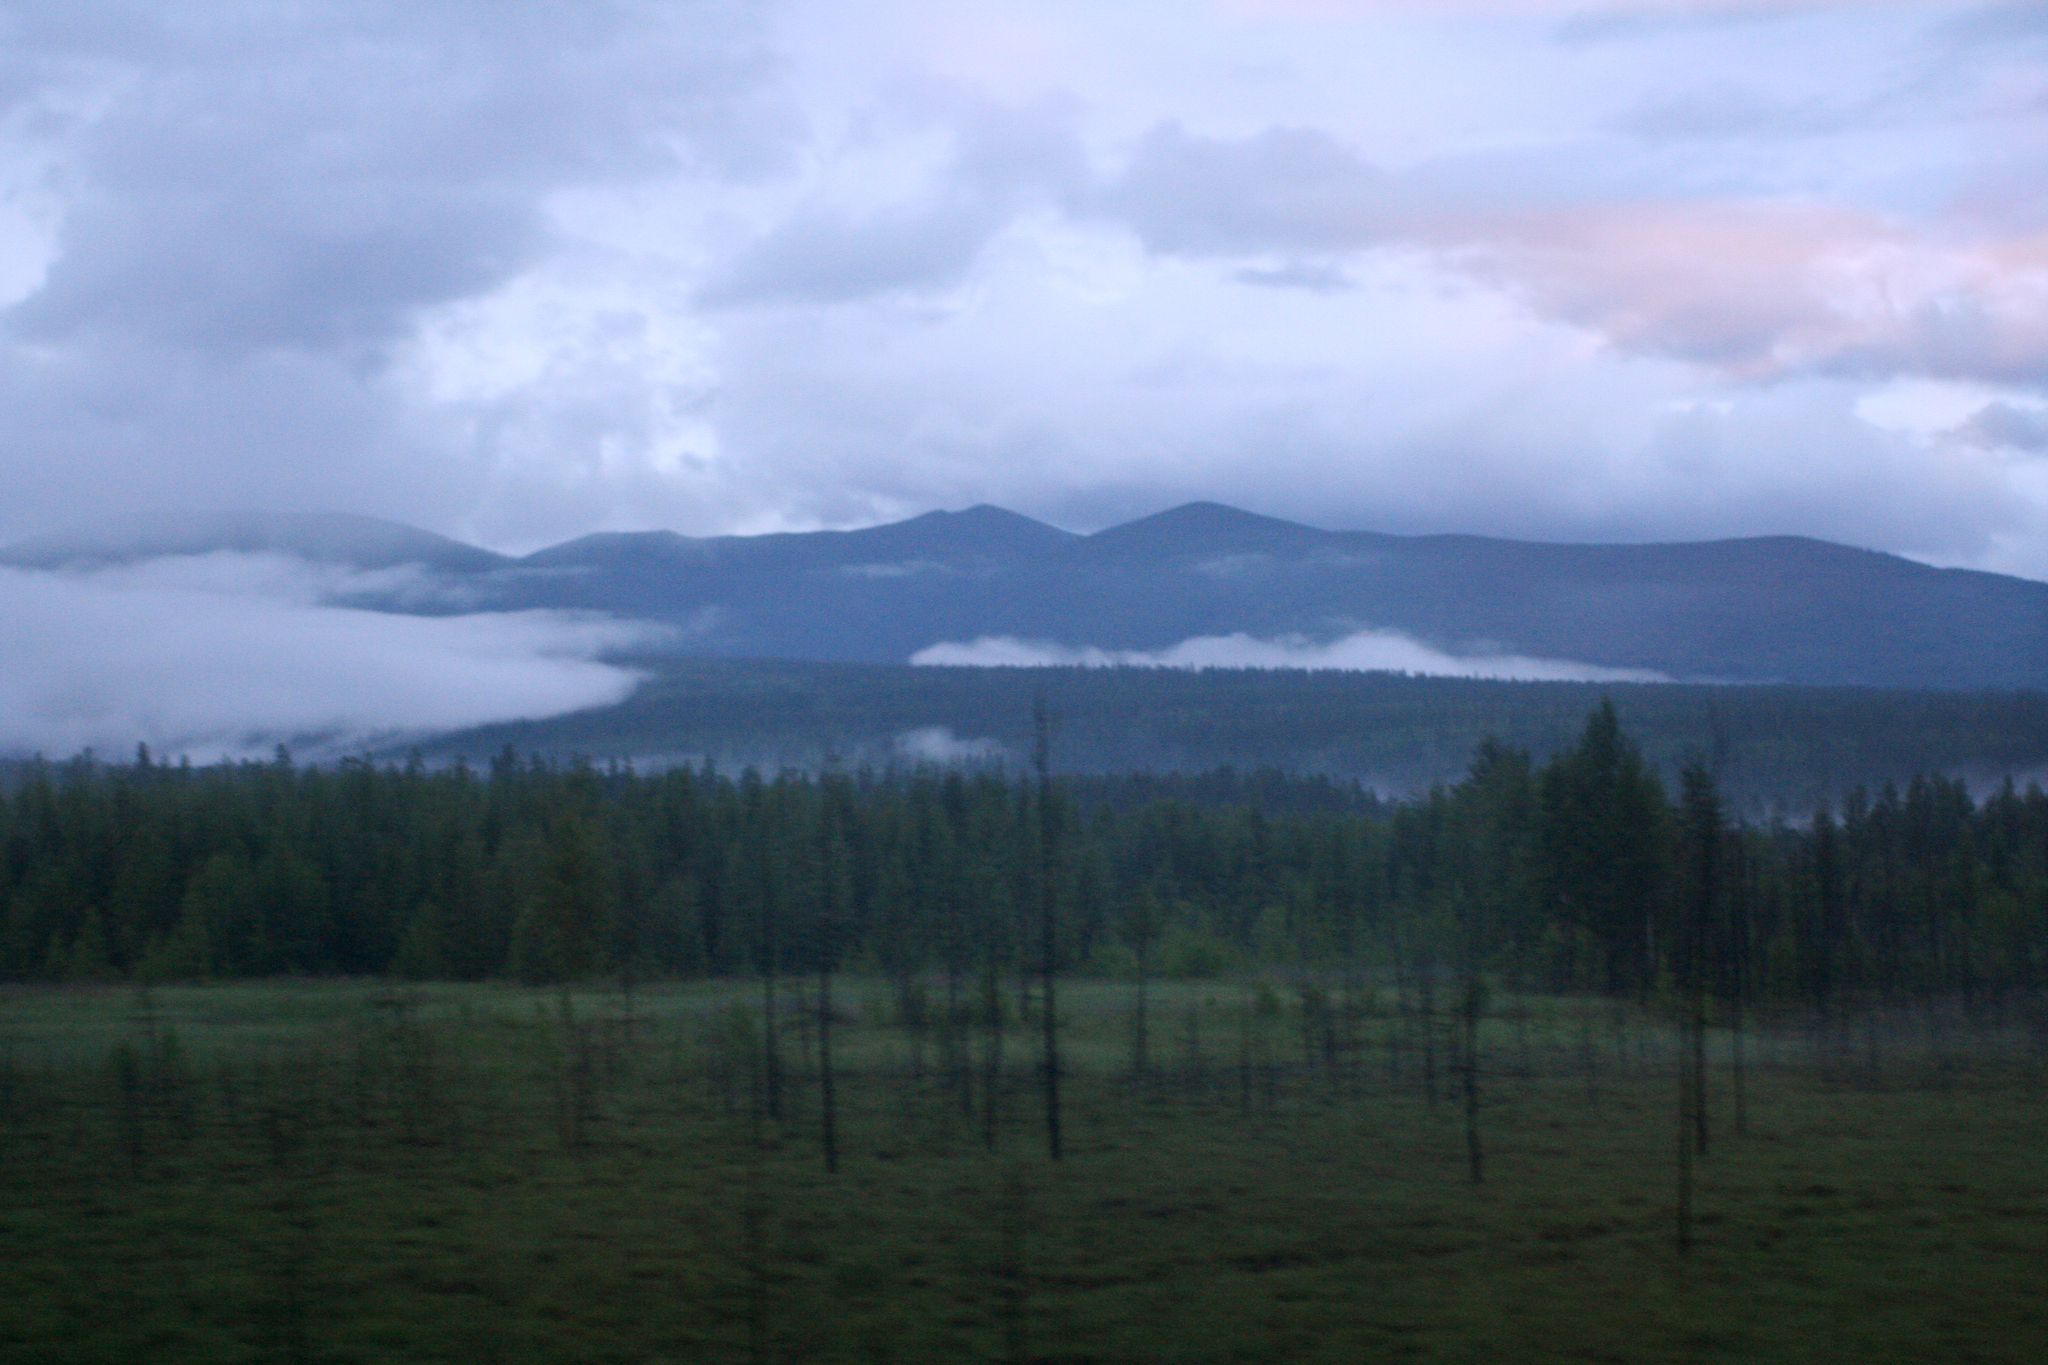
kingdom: Plantae
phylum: Tracheophyta
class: Pinopsida
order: Pinales
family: Pinaceae
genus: Larix
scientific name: Larix gmelinii
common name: Dahurian larch
